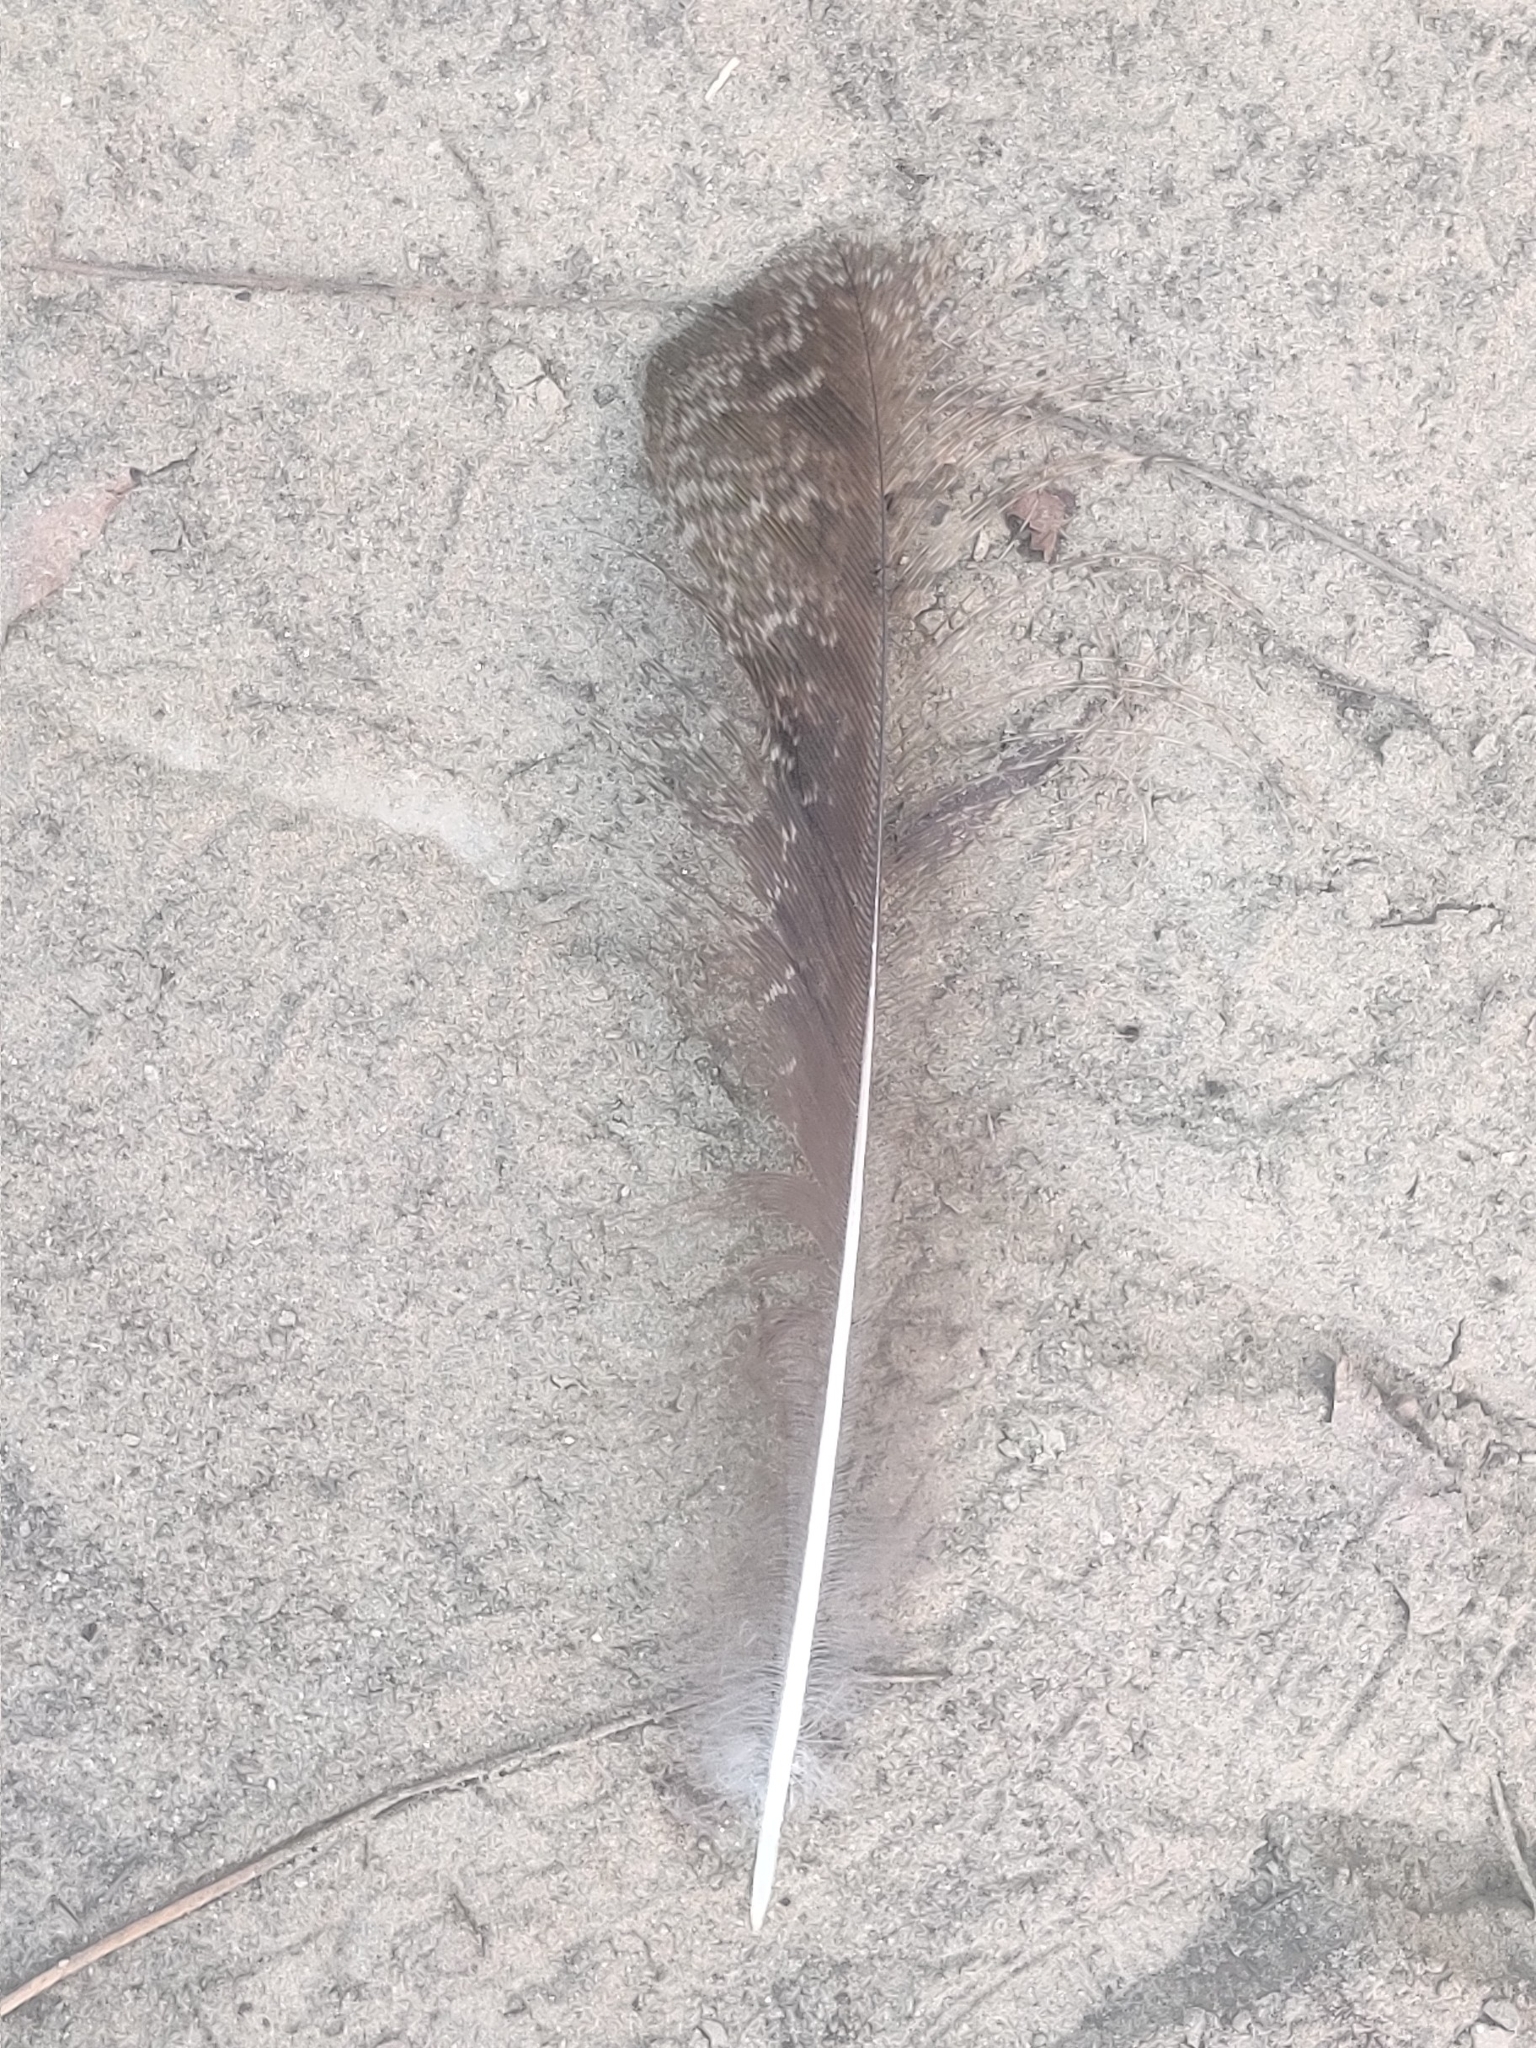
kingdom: Animalia
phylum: Chordata
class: Aves
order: Galliformes
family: Phasianidae
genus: Pavo
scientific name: Pavo cristatus
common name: Indian peafowl
